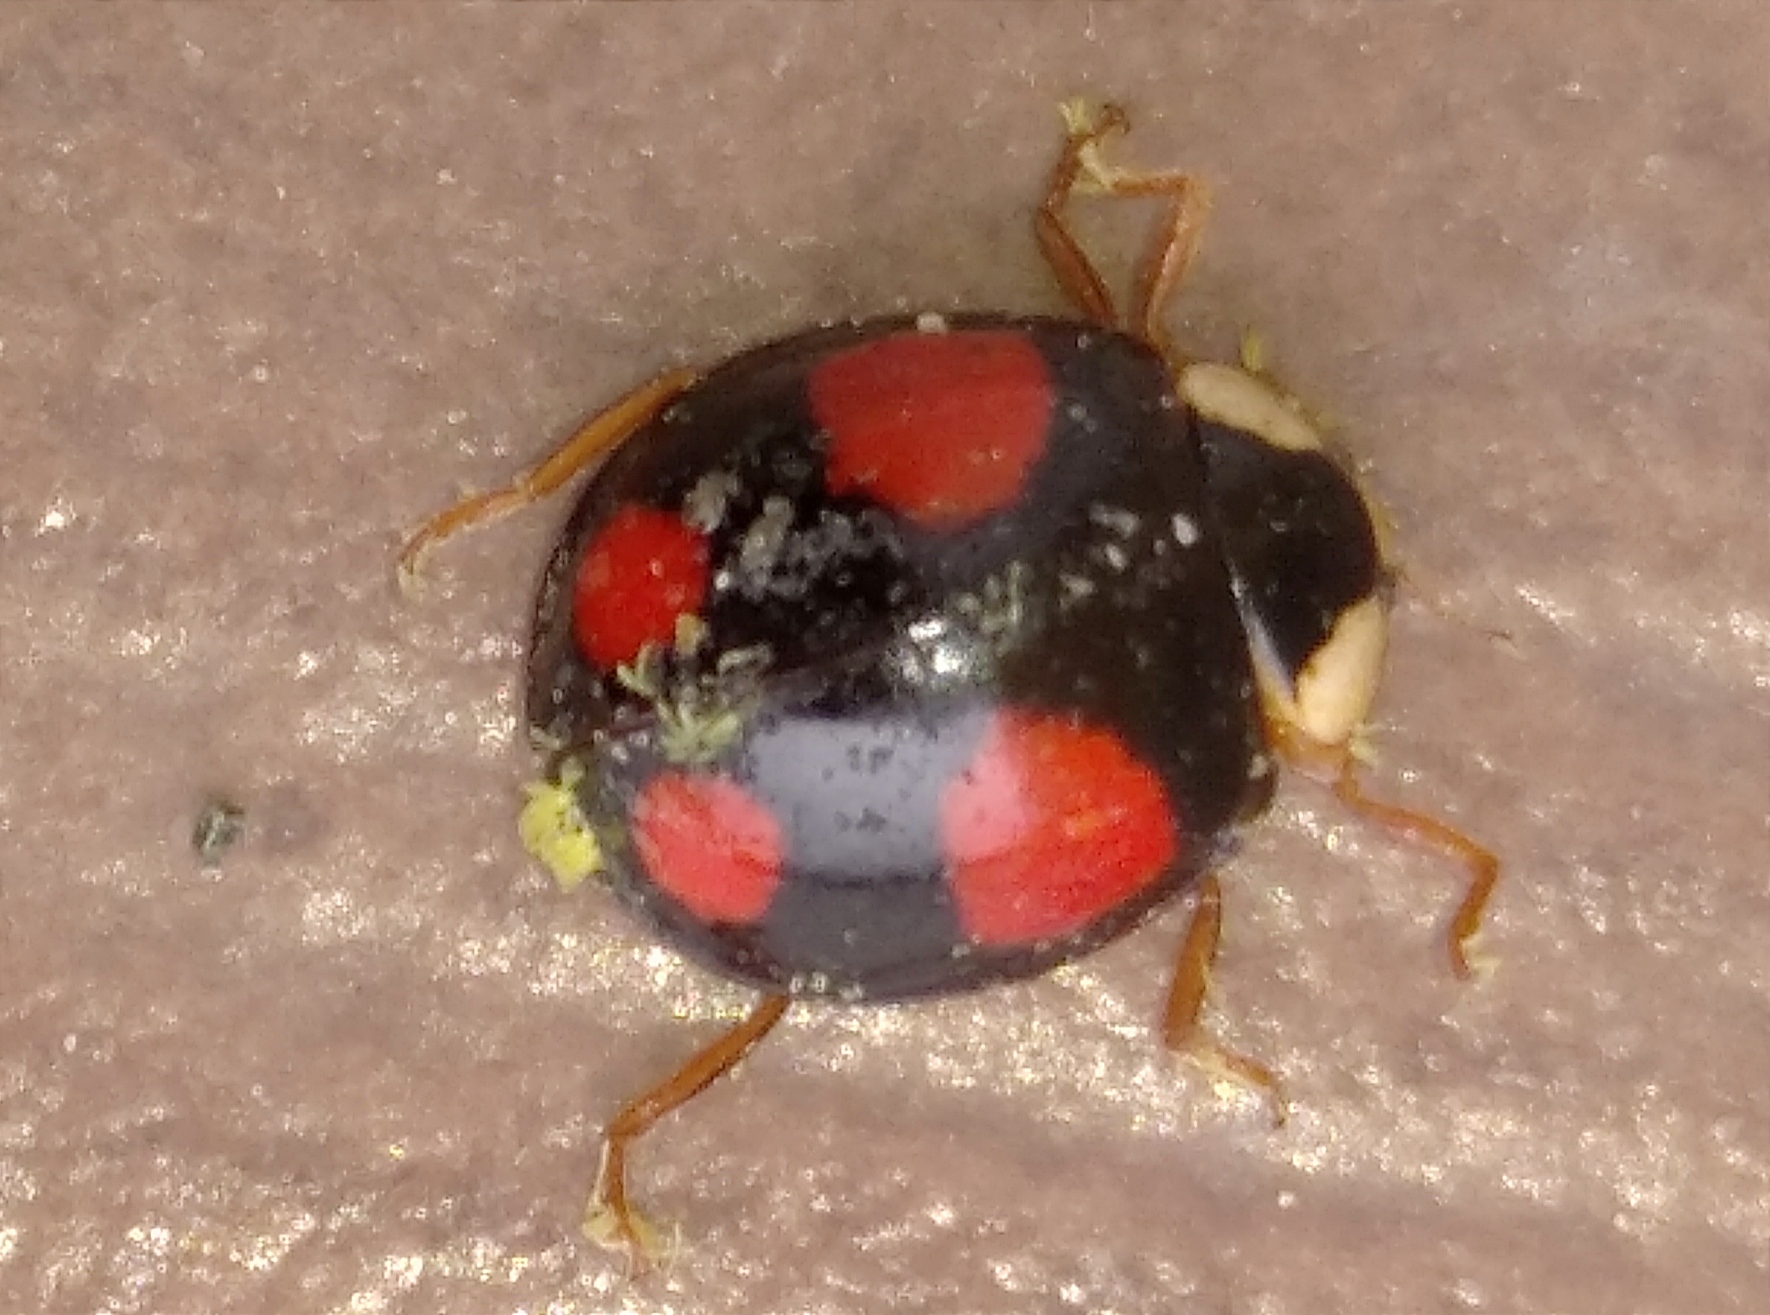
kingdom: Fungi
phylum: Ascomycota
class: Laboulbeniomycetes
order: Laboulbeniales
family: Laboulbeniaceae
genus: Hesperomyces
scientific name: Hesperomyces harmoniae
